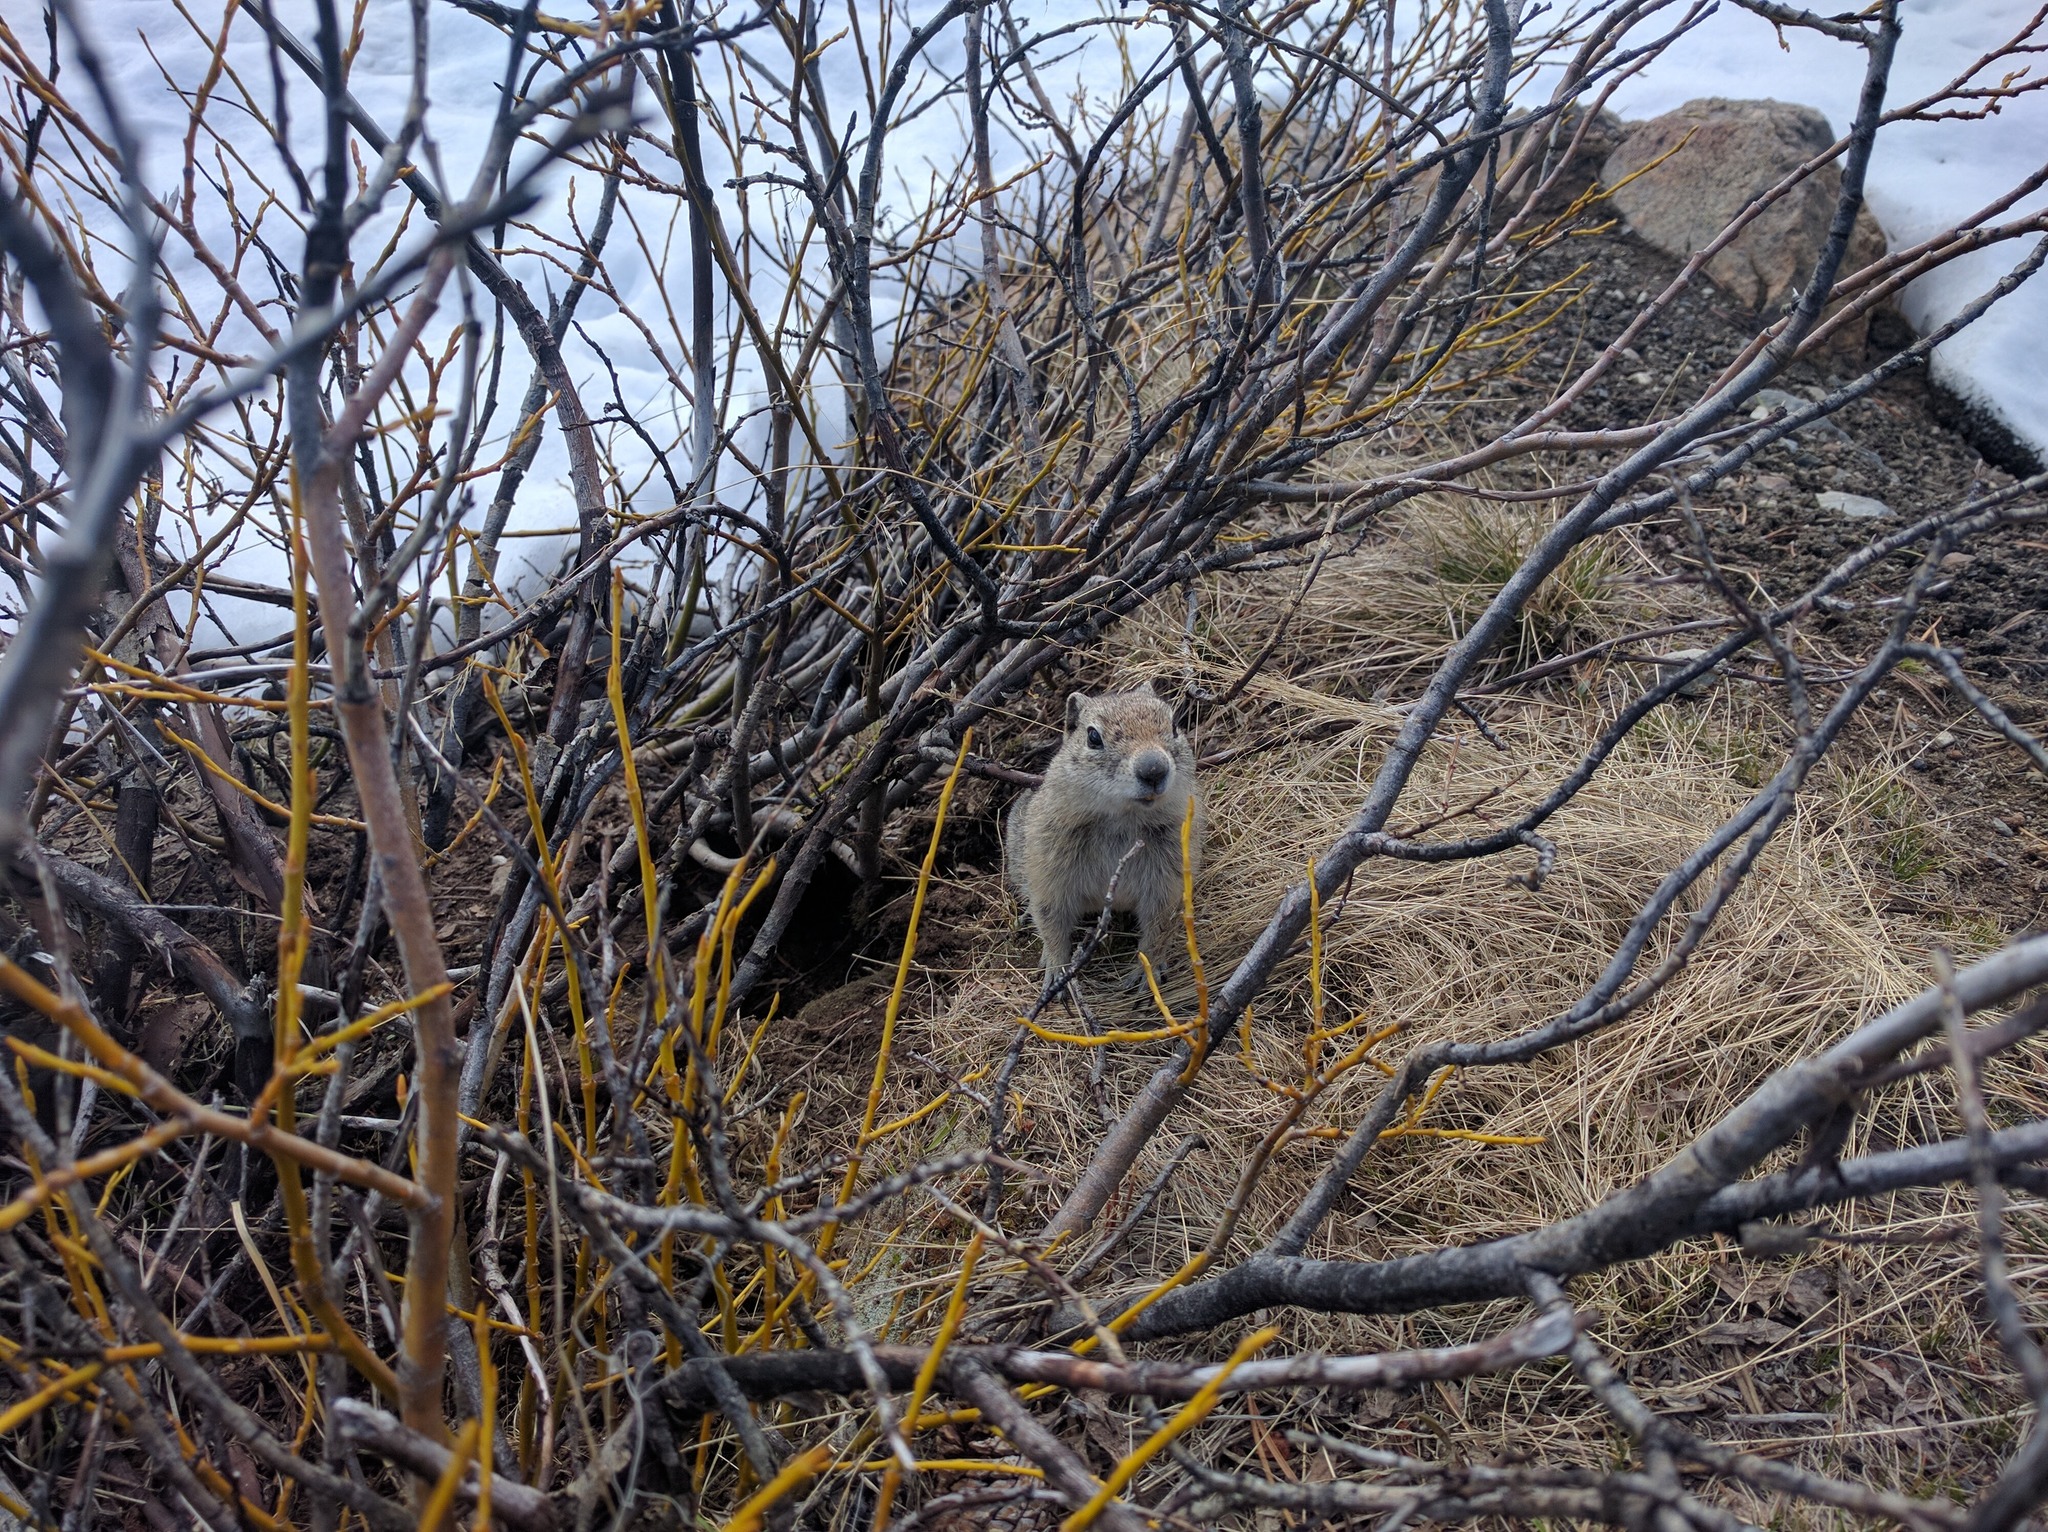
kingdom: Animalia
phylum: Chordata
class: Mammalia
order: Rodentia
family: Sciuridae
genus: Urocitellus
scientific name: Urocitellus beldingi
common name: Belding's ground squirrel
